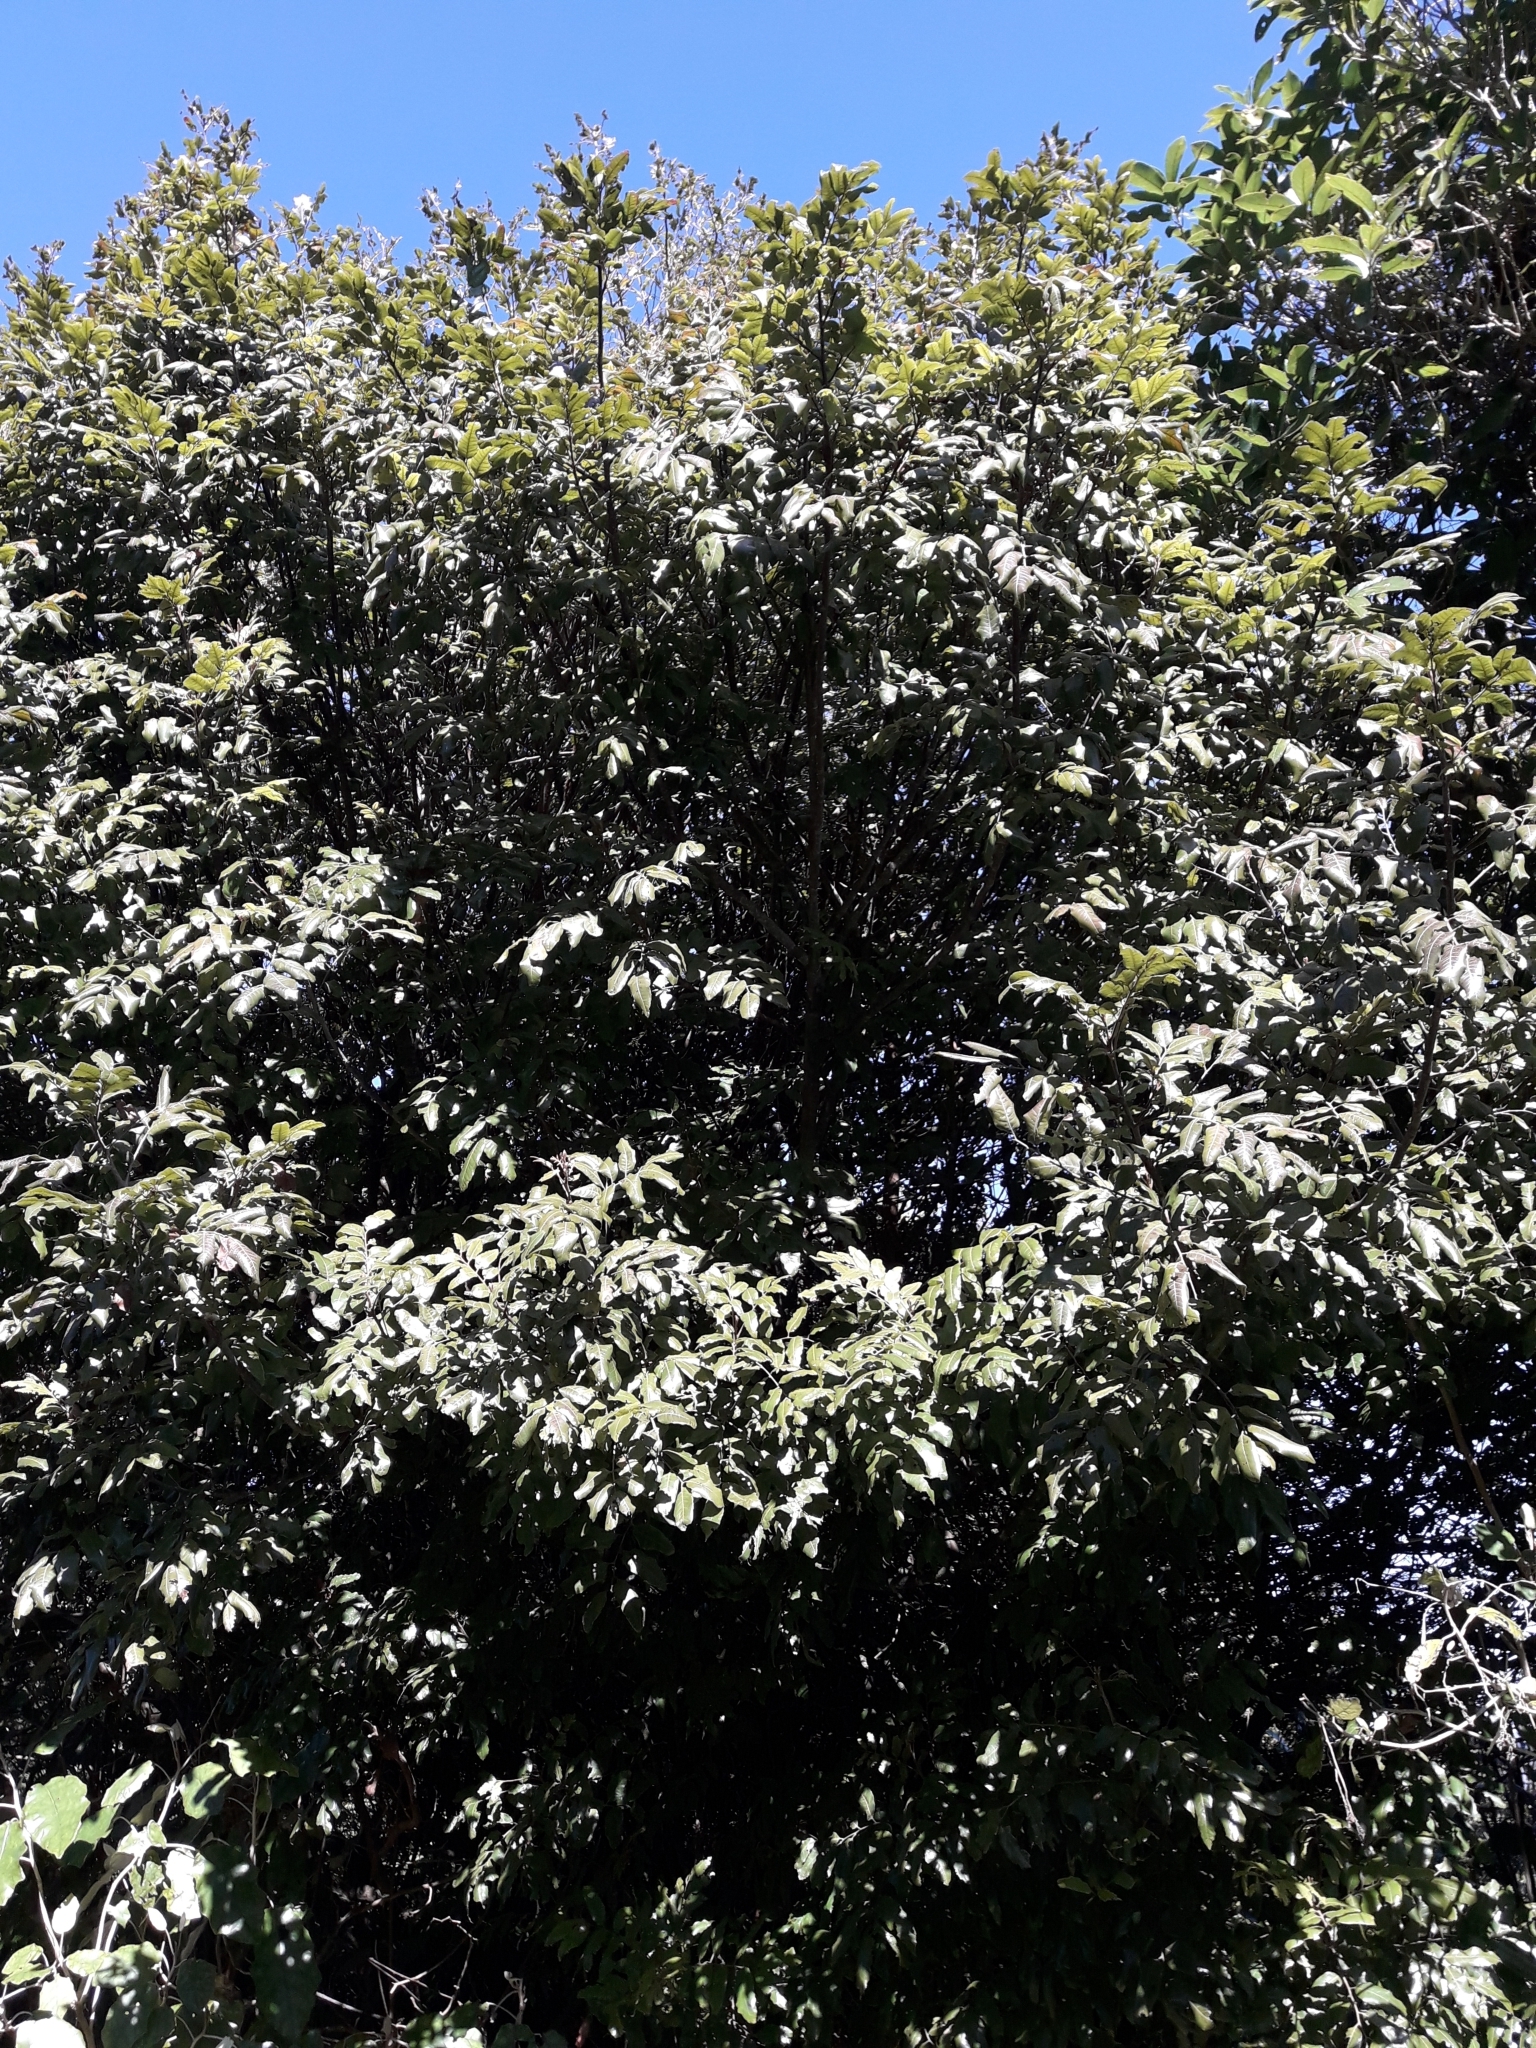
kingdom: Plantae
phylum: Tracheophyta
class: Magnoliopsida
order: Sapindales
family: Sapindaceae
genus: Alectryon
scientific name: Alectryon excelsus
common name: Three kings titoki
